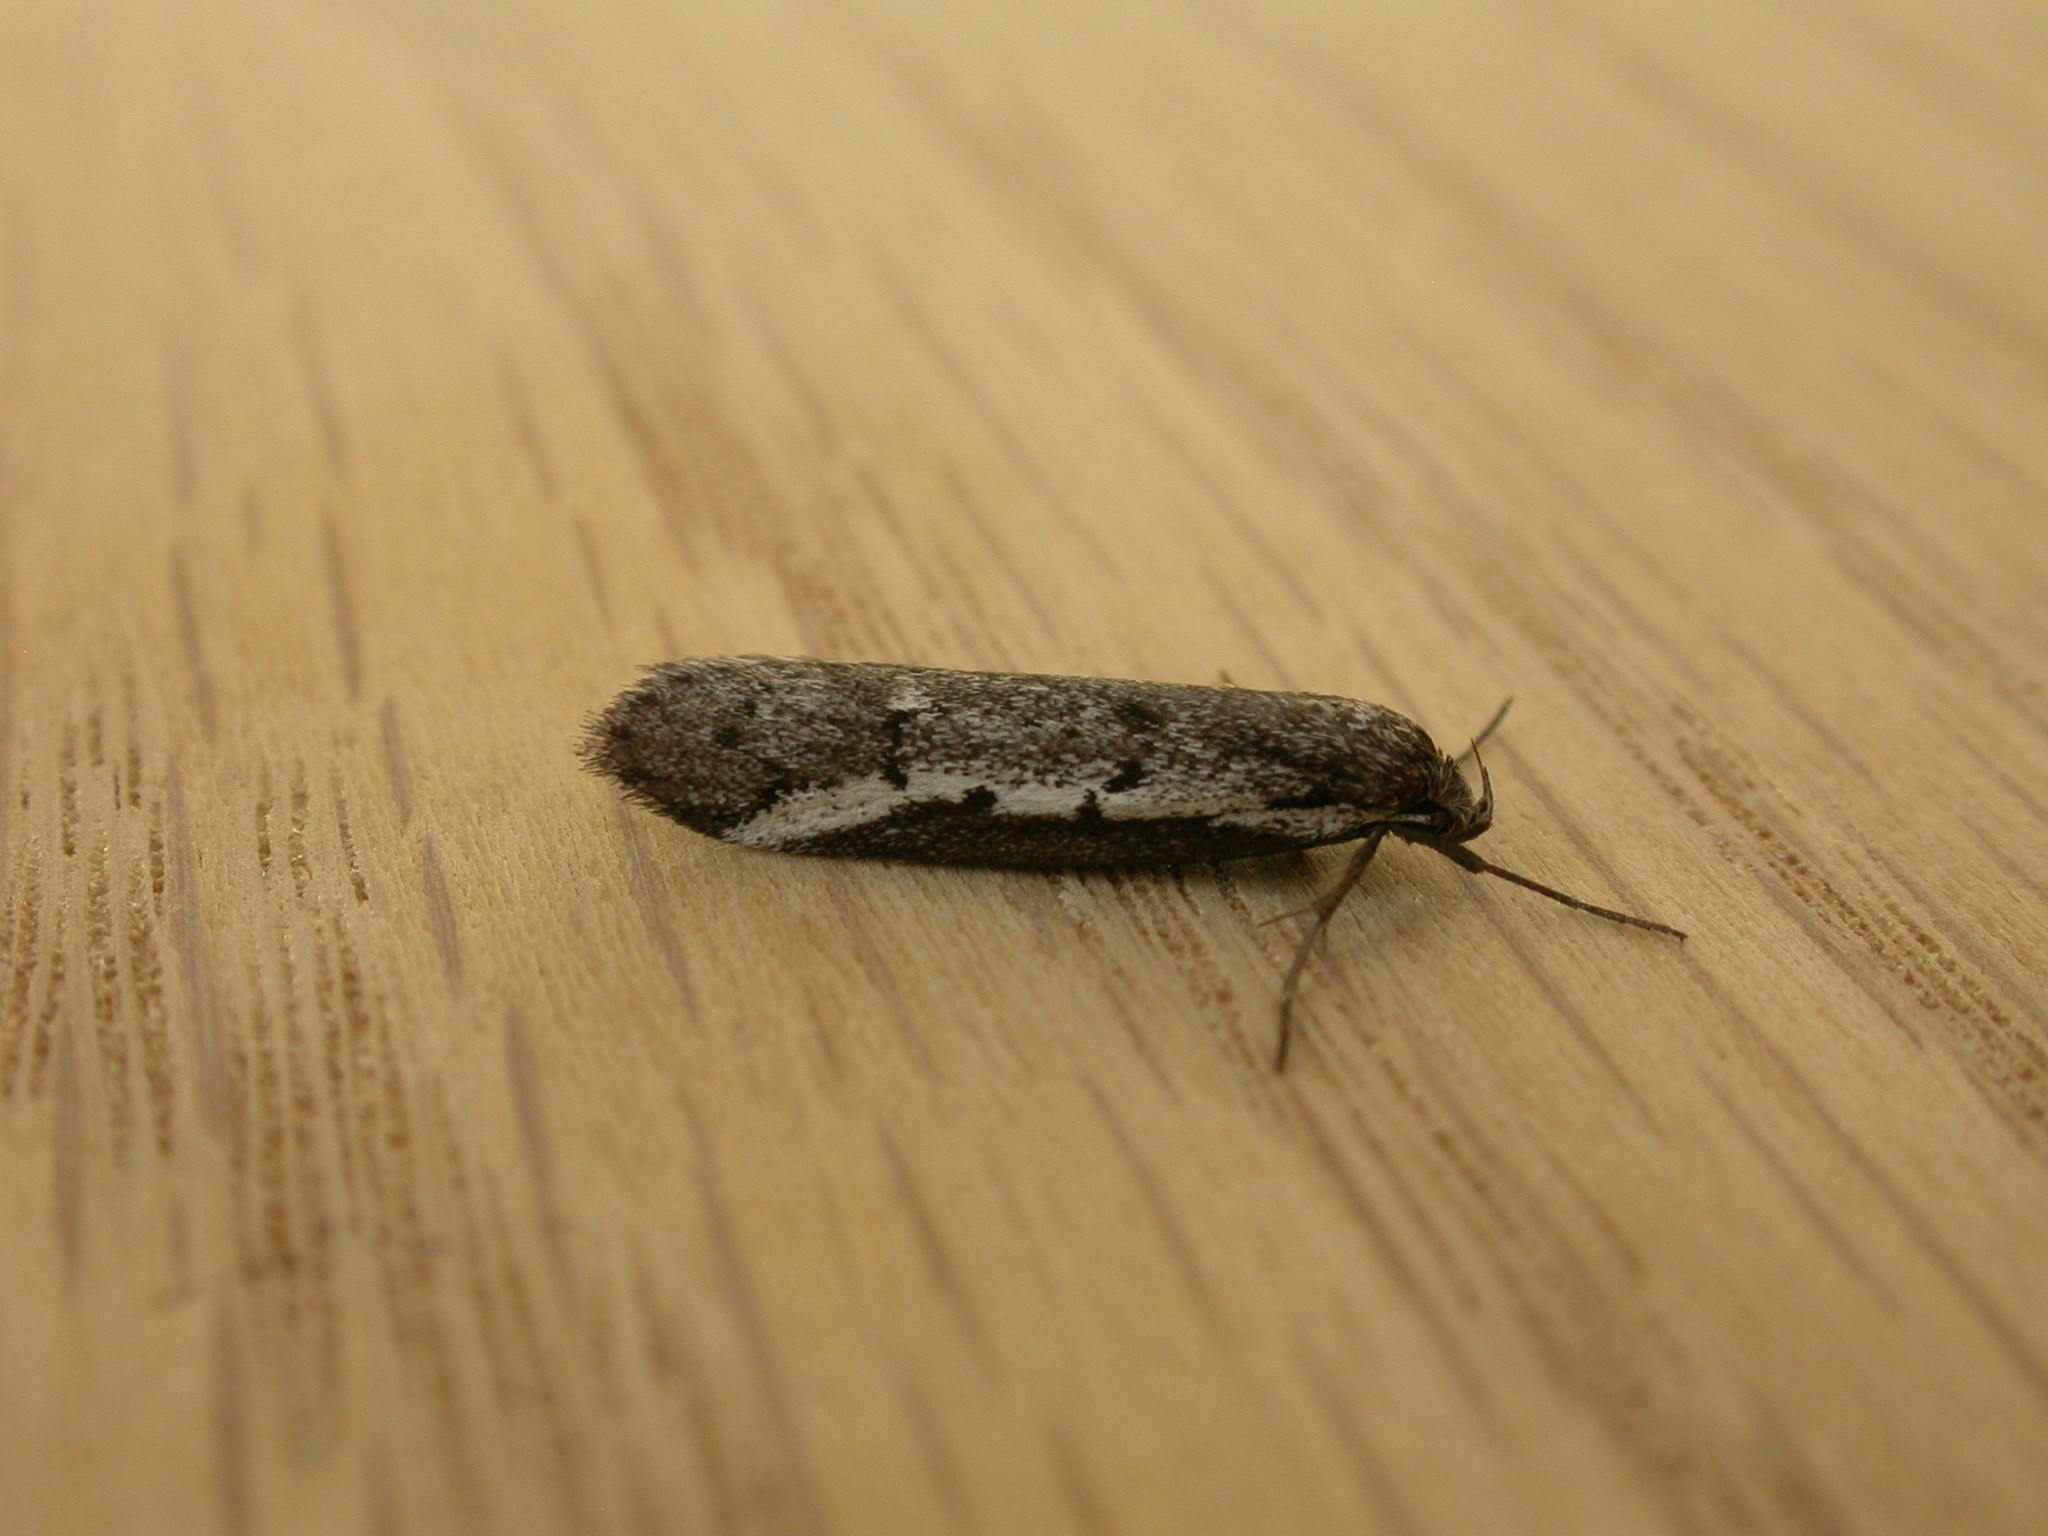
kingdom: Animalia
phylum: Arthropoda
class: Insecta
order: Lepidoptera
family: Oecophoridae
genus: Philobota
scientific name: Philobota stella
